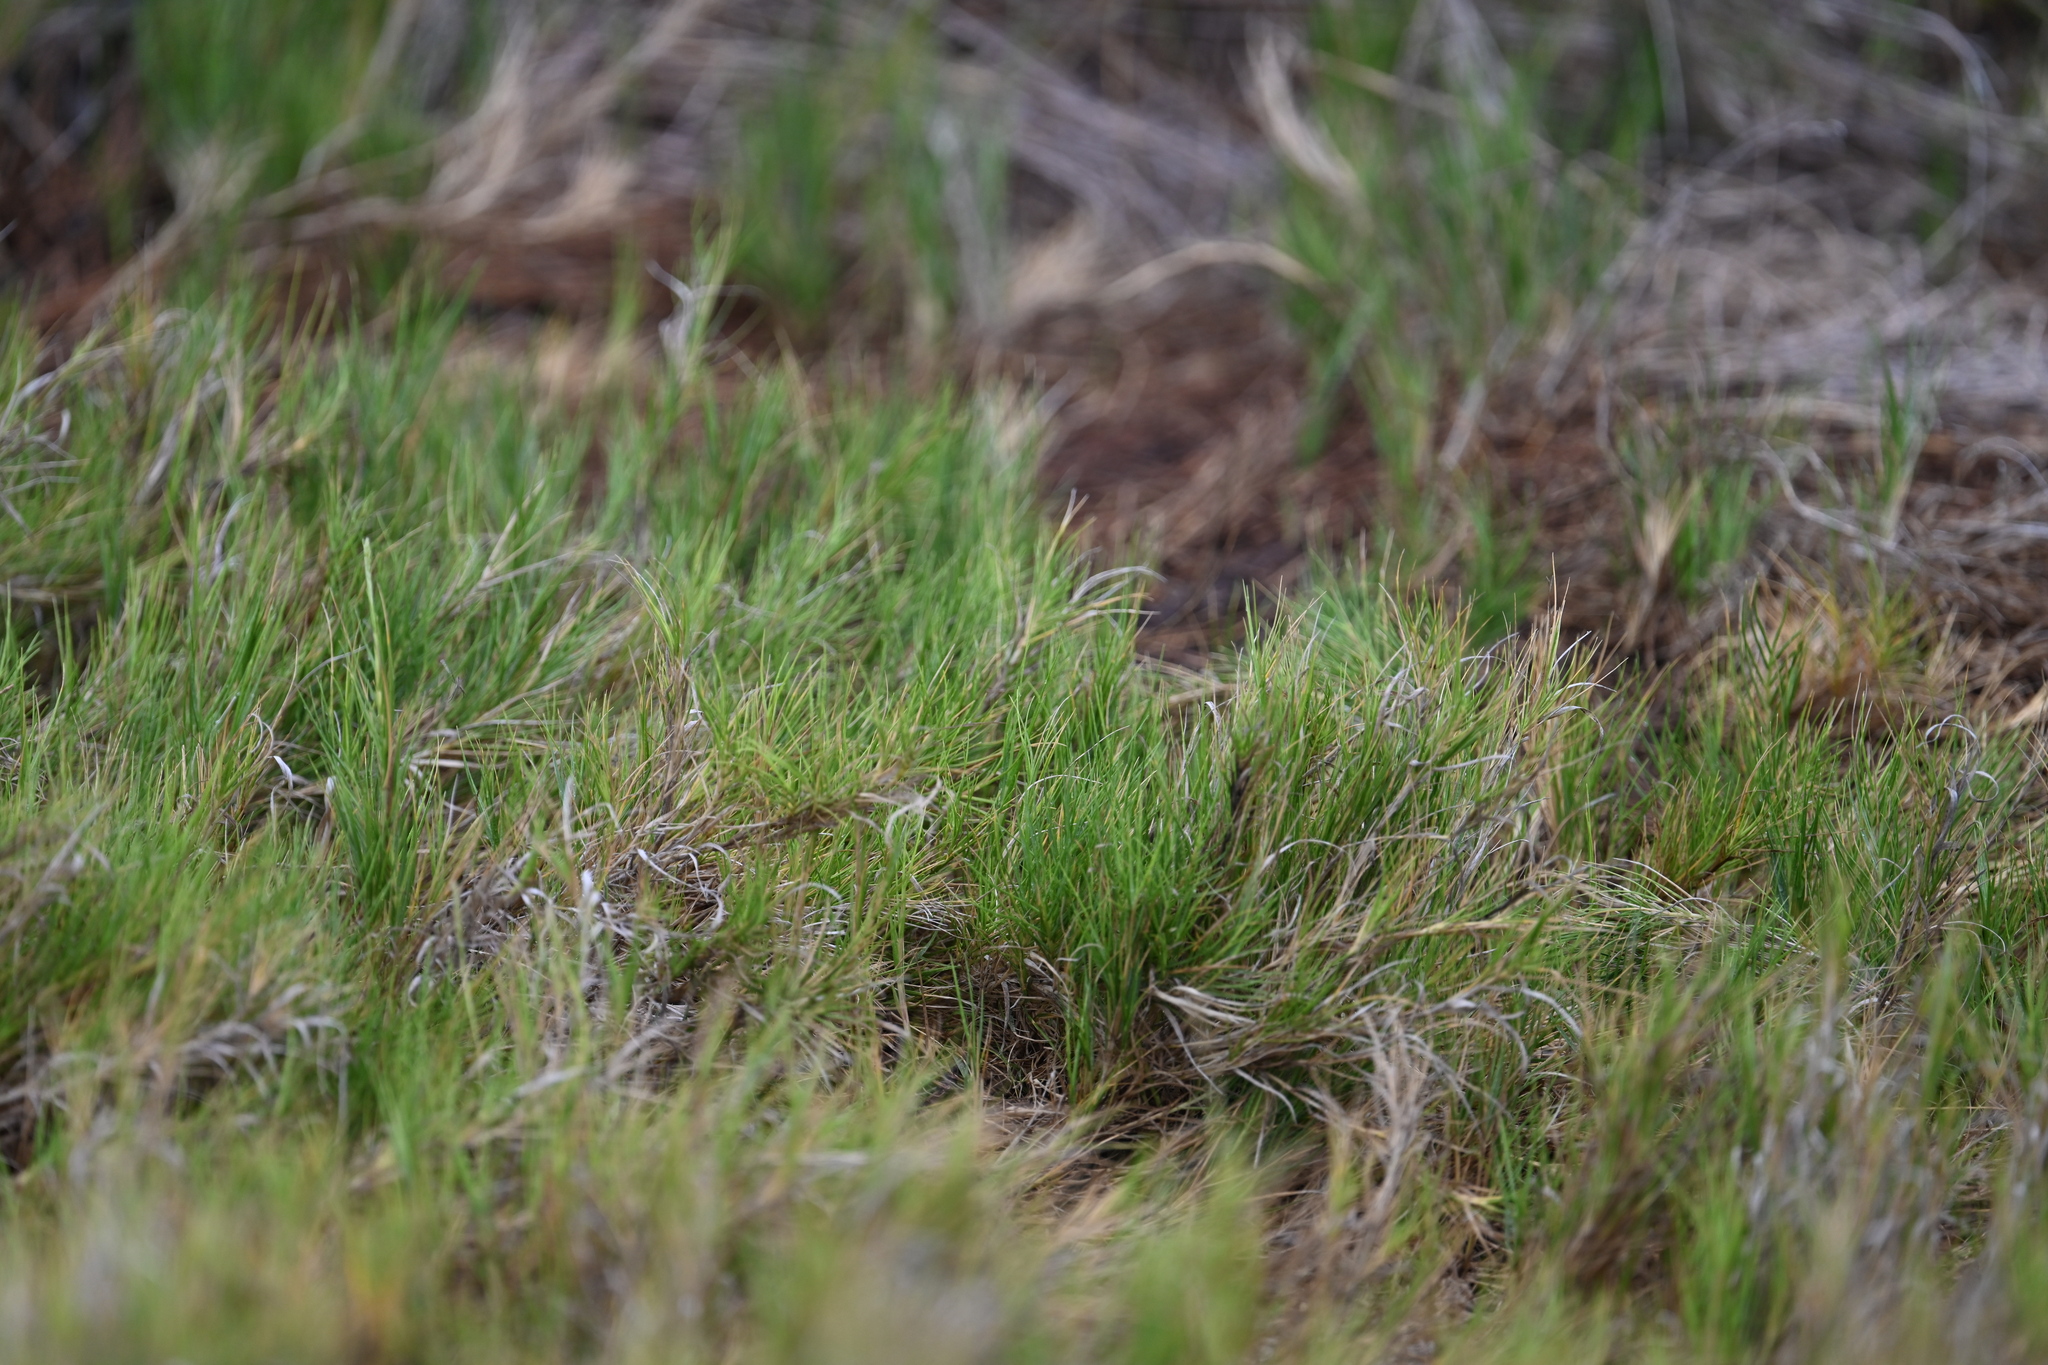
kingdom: Plantae
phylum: Tracheophyta
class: Liliopsida
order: Poales
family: Poaceae
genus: Sporobolus
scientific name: Sporobolus virginicus
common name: Beach dropseed
